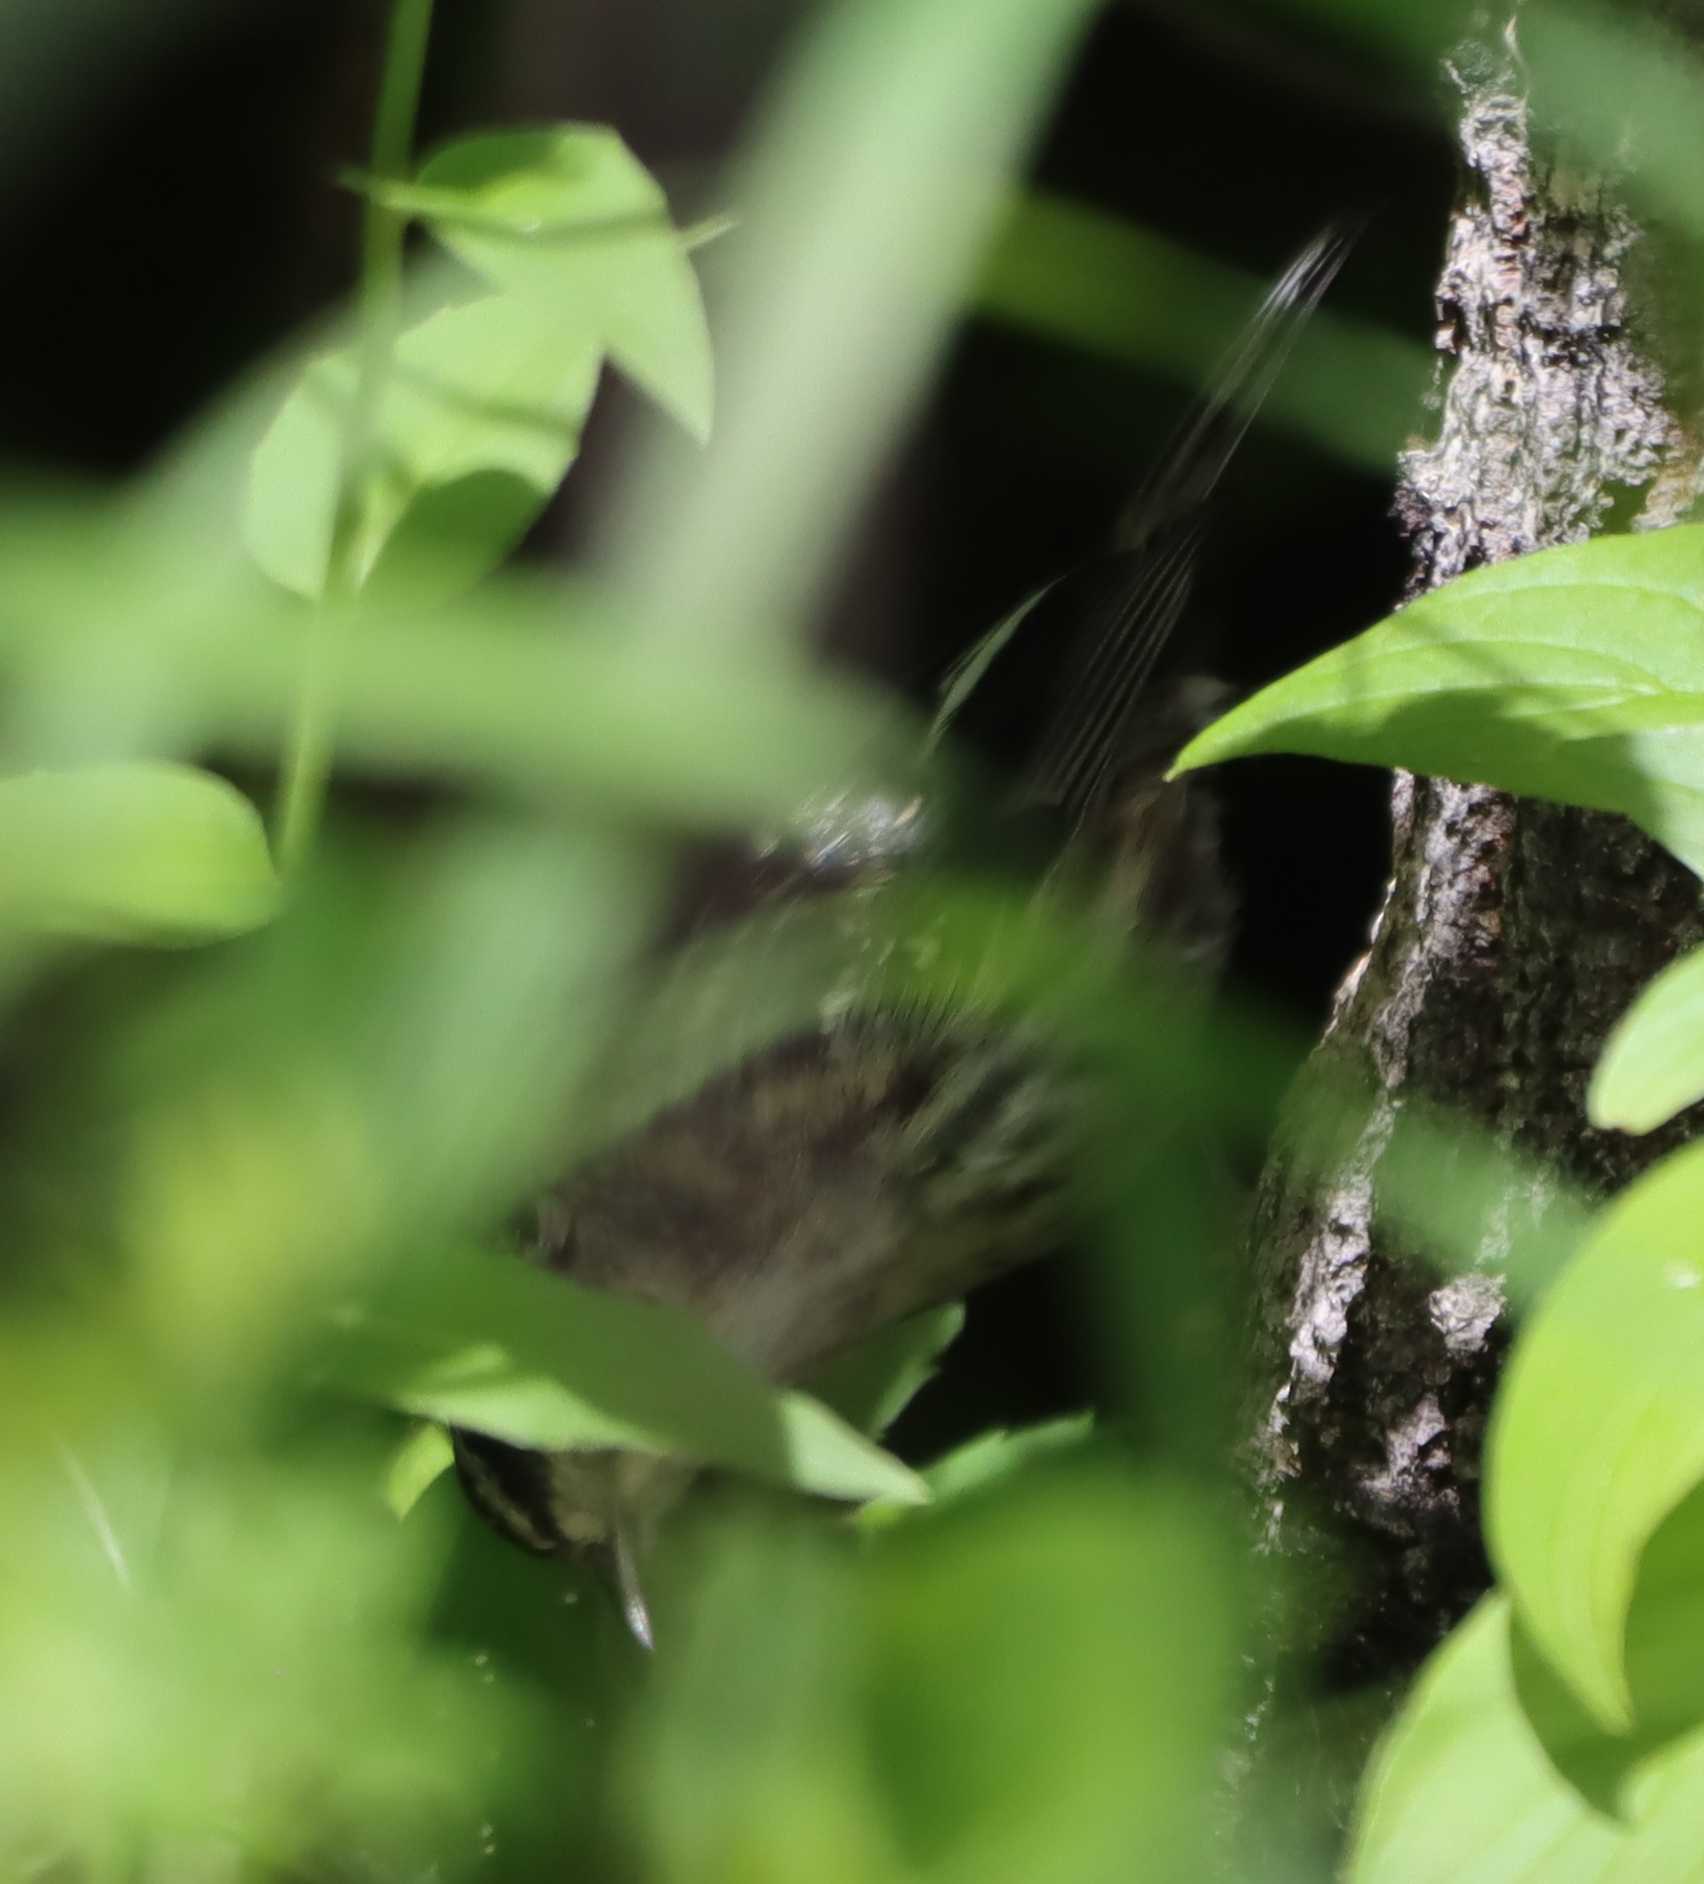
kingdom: Animalia
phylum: Chordata
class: Aves
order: Passeriformes
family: Parulidae
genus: Mniotilta
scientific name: Mniotilta varia
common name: Black-and-white warbler
